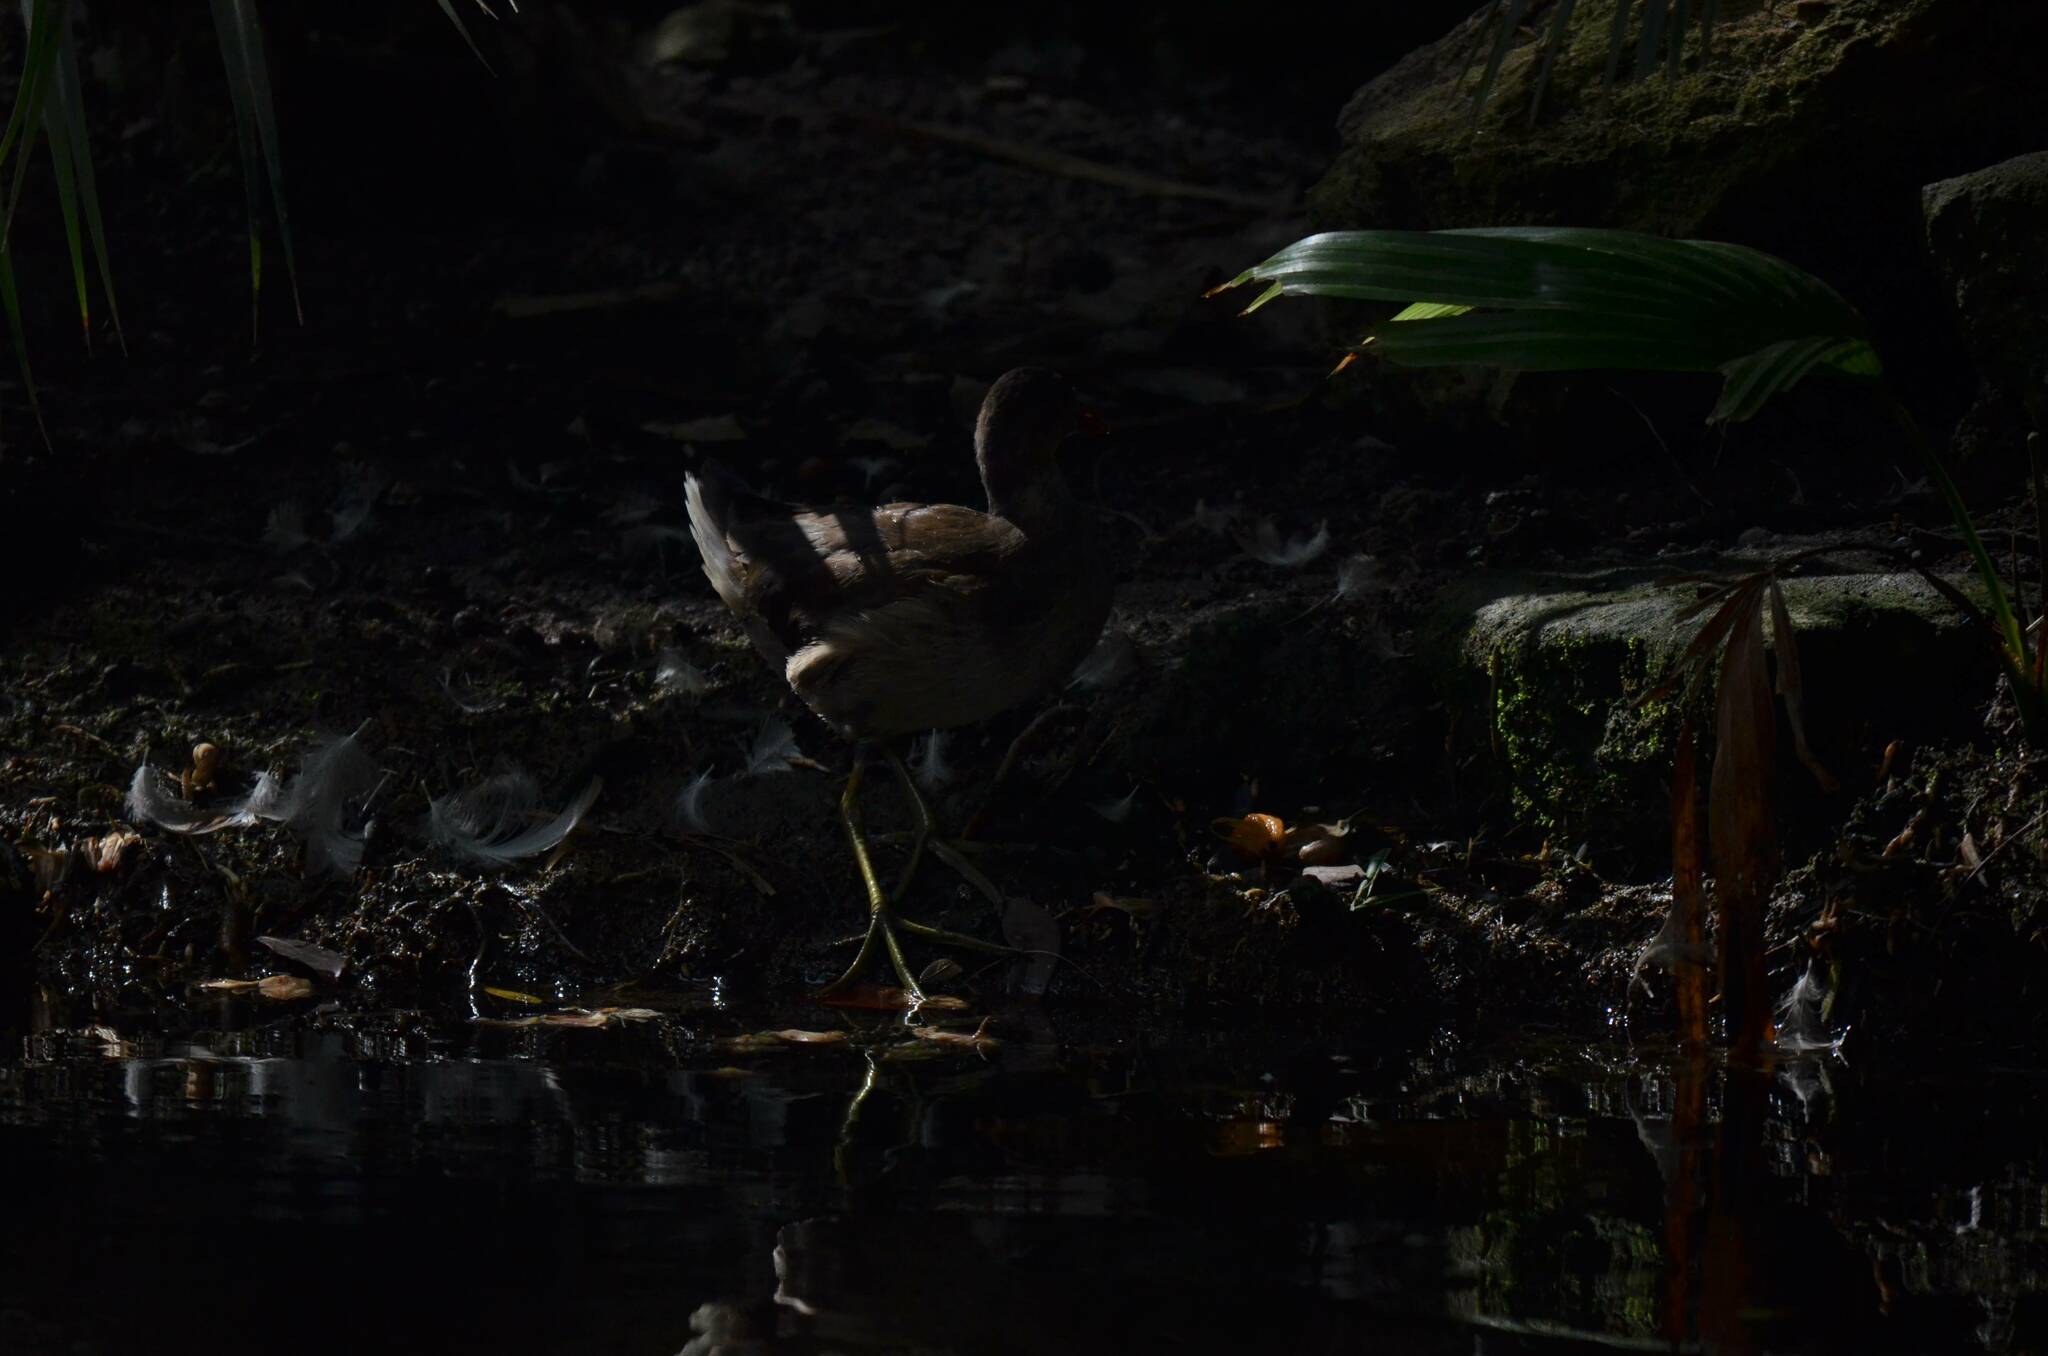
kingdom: Animalia
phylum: Chordata
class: Aves
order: Gruiformes
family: Rallidae
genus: Gallinula
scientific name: Gallinula chloropus
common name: Common moorhen
